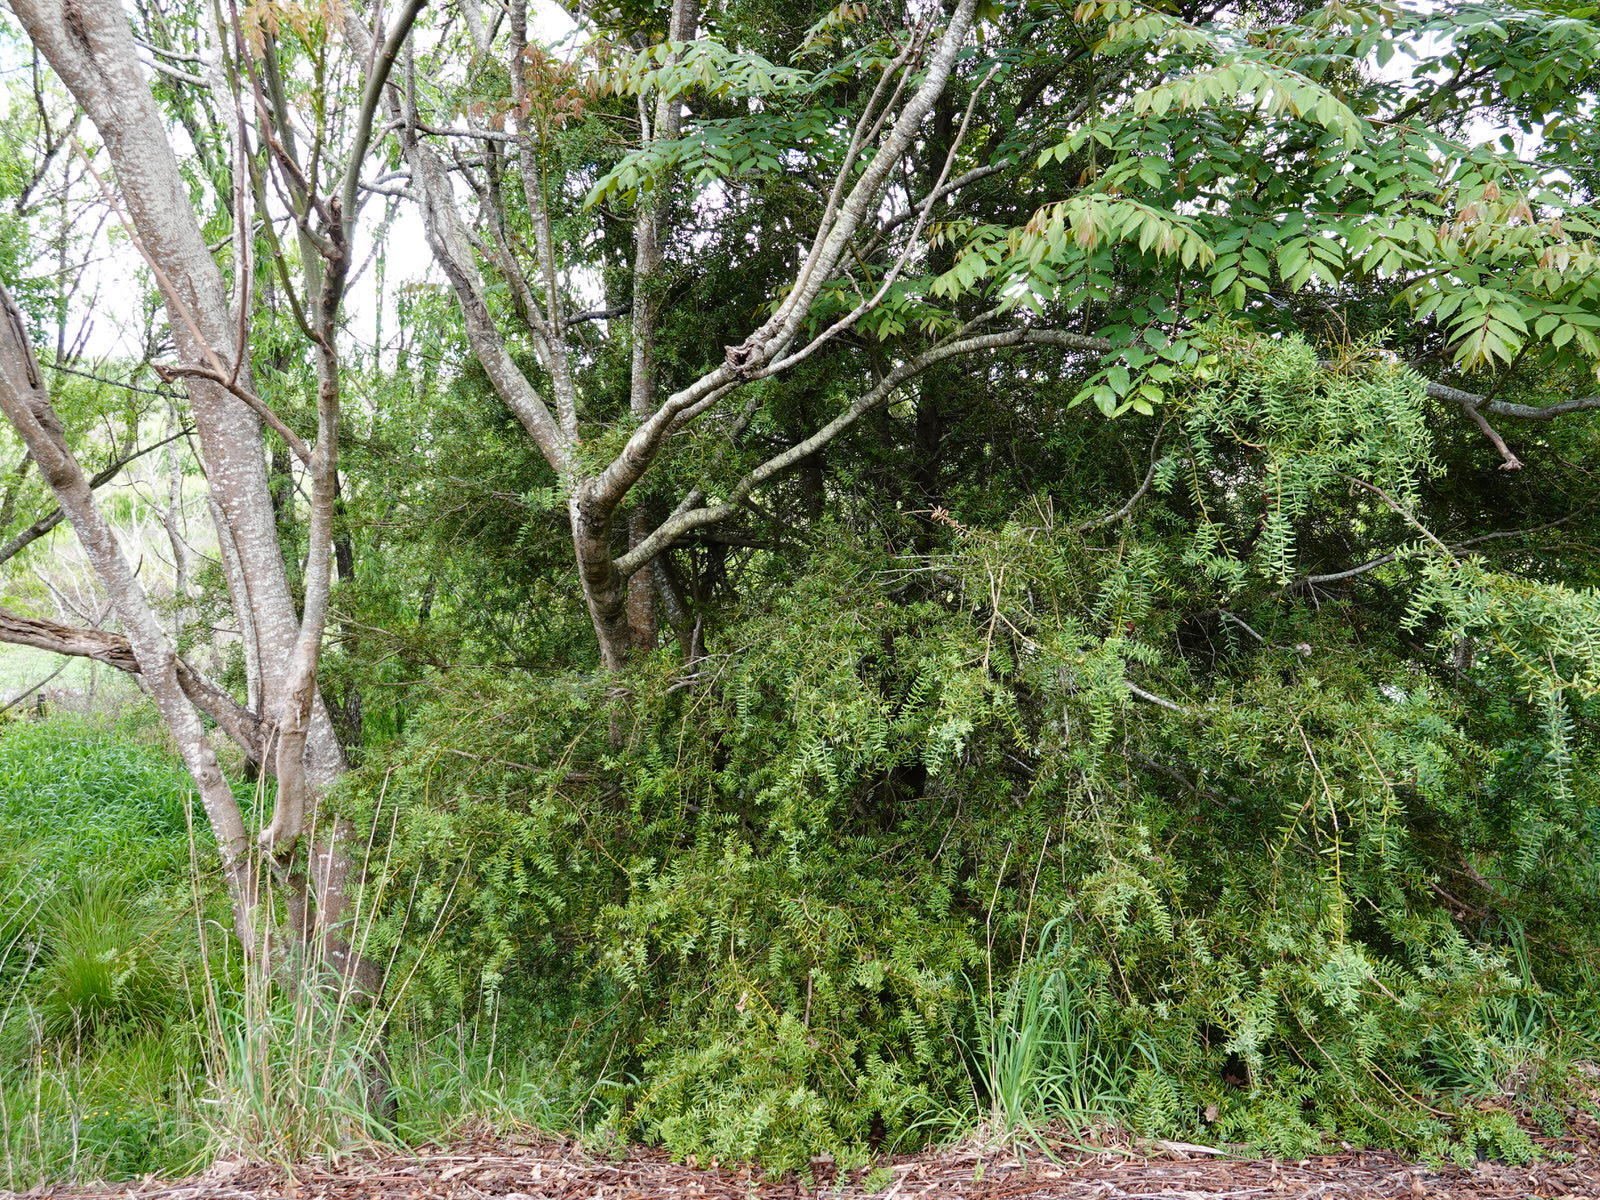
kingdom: Plantae
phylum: Tracheophyta
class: Pinopsida
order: Pinales
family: Podocarpaceae
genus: Podocarpus
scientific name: Podocarpus totara
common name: Totara
